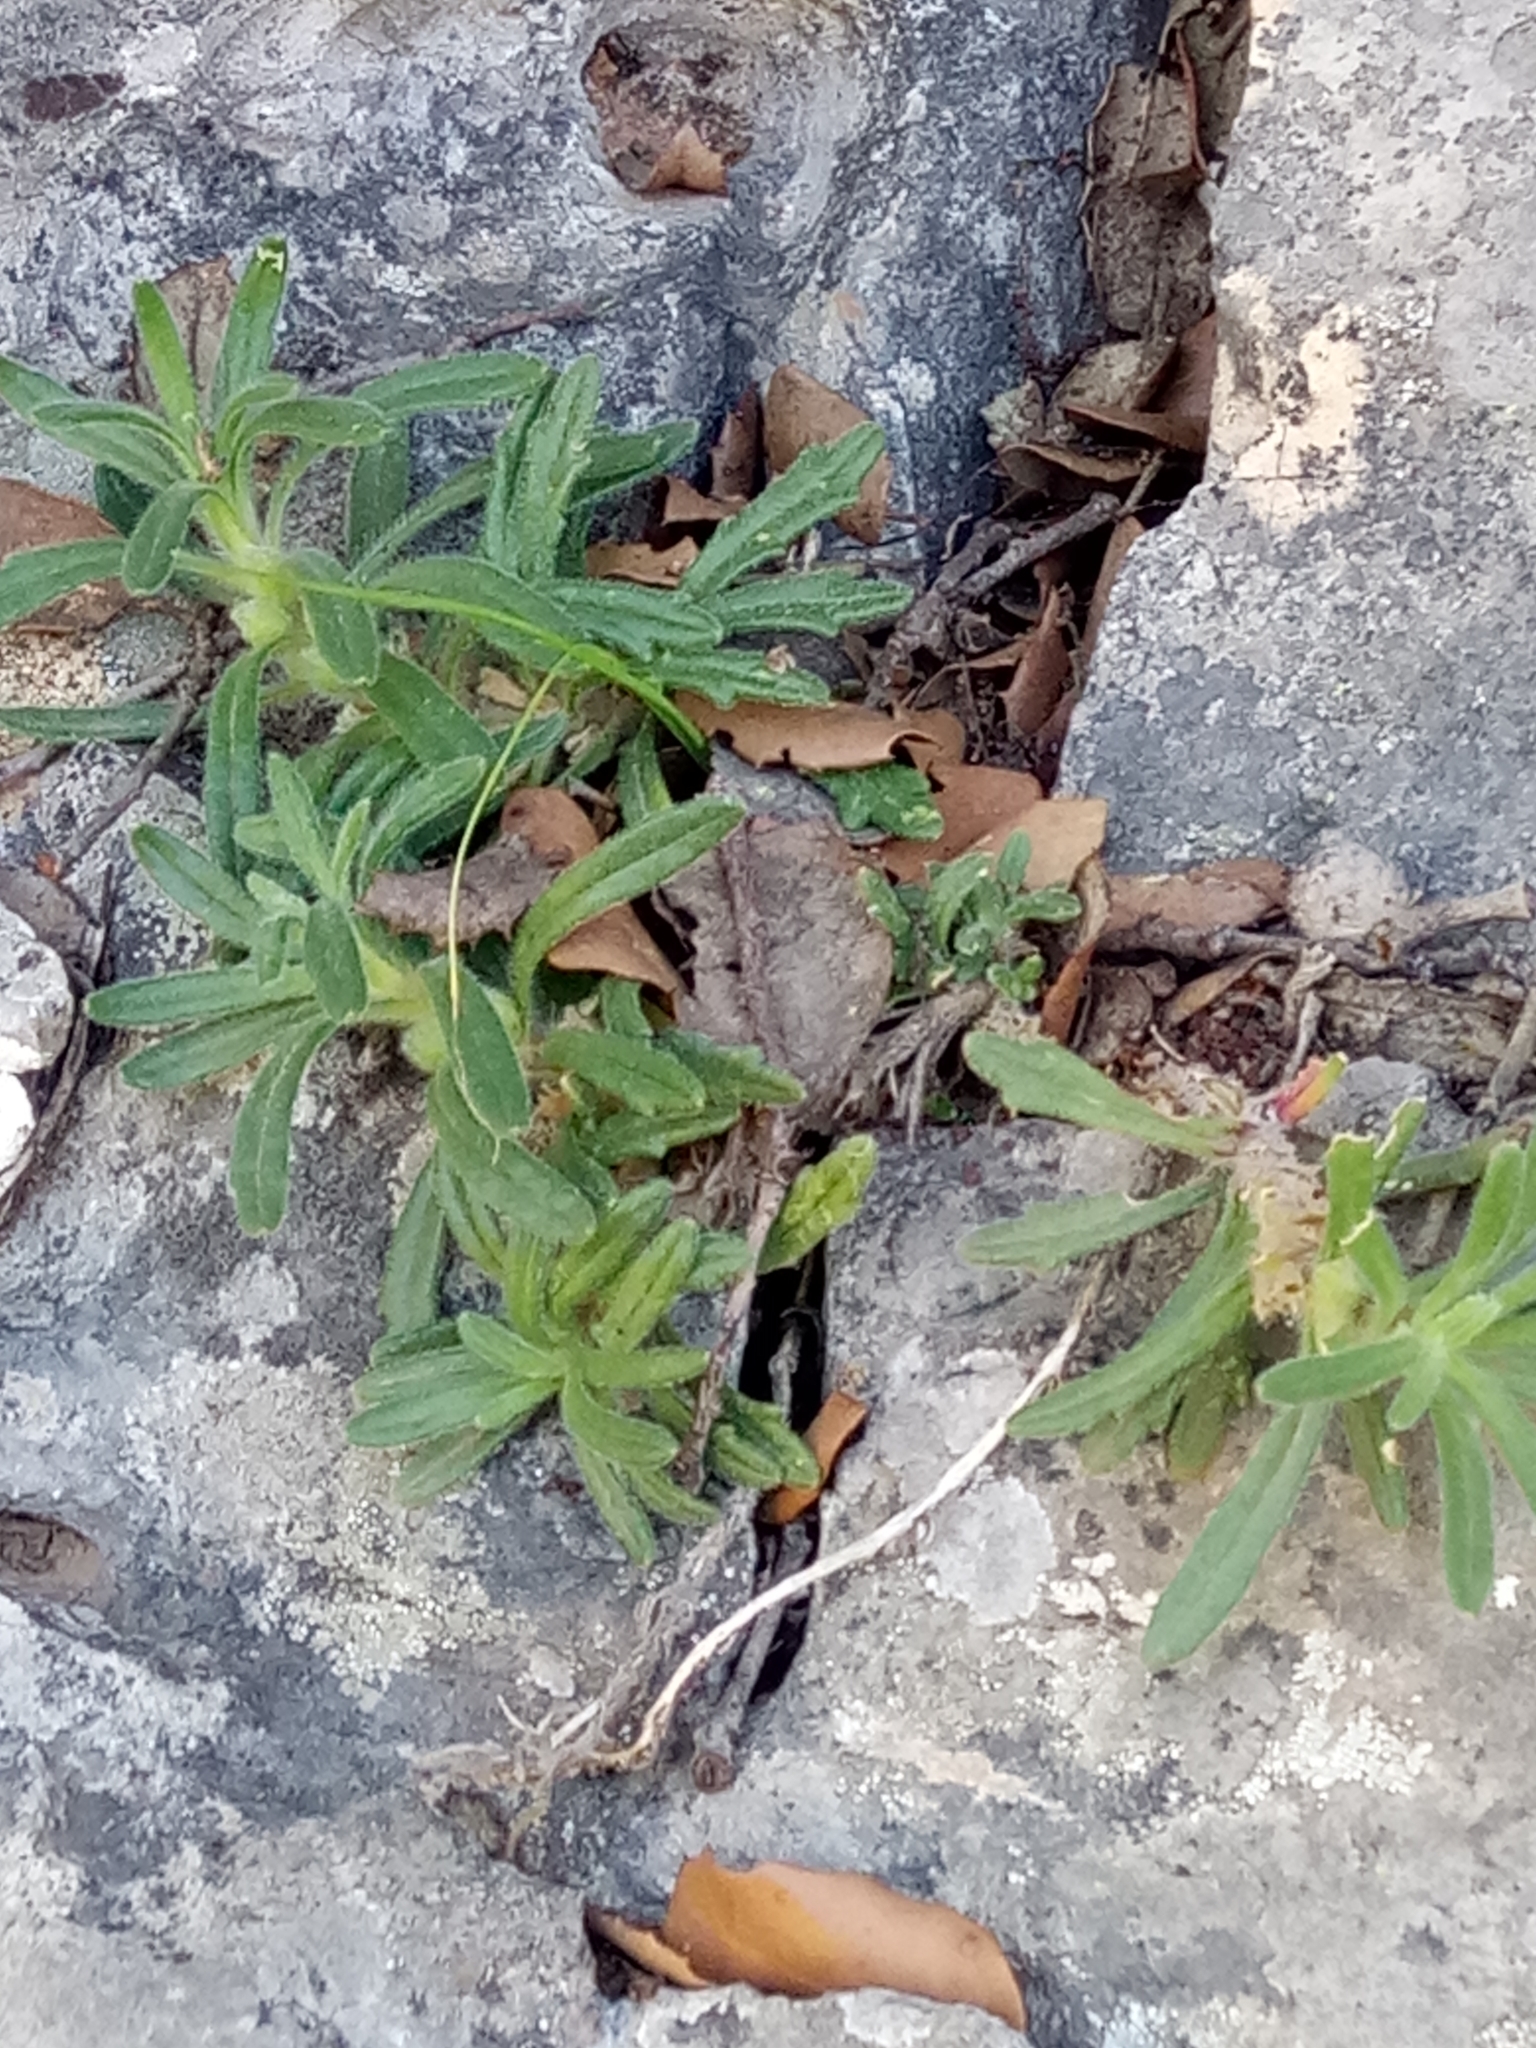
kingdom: Plantae
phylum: Tracheophyta
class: Magnoliopsida
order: Lamiales
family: Lamiaceae
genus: Ajuga
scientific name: Ajuga iva
